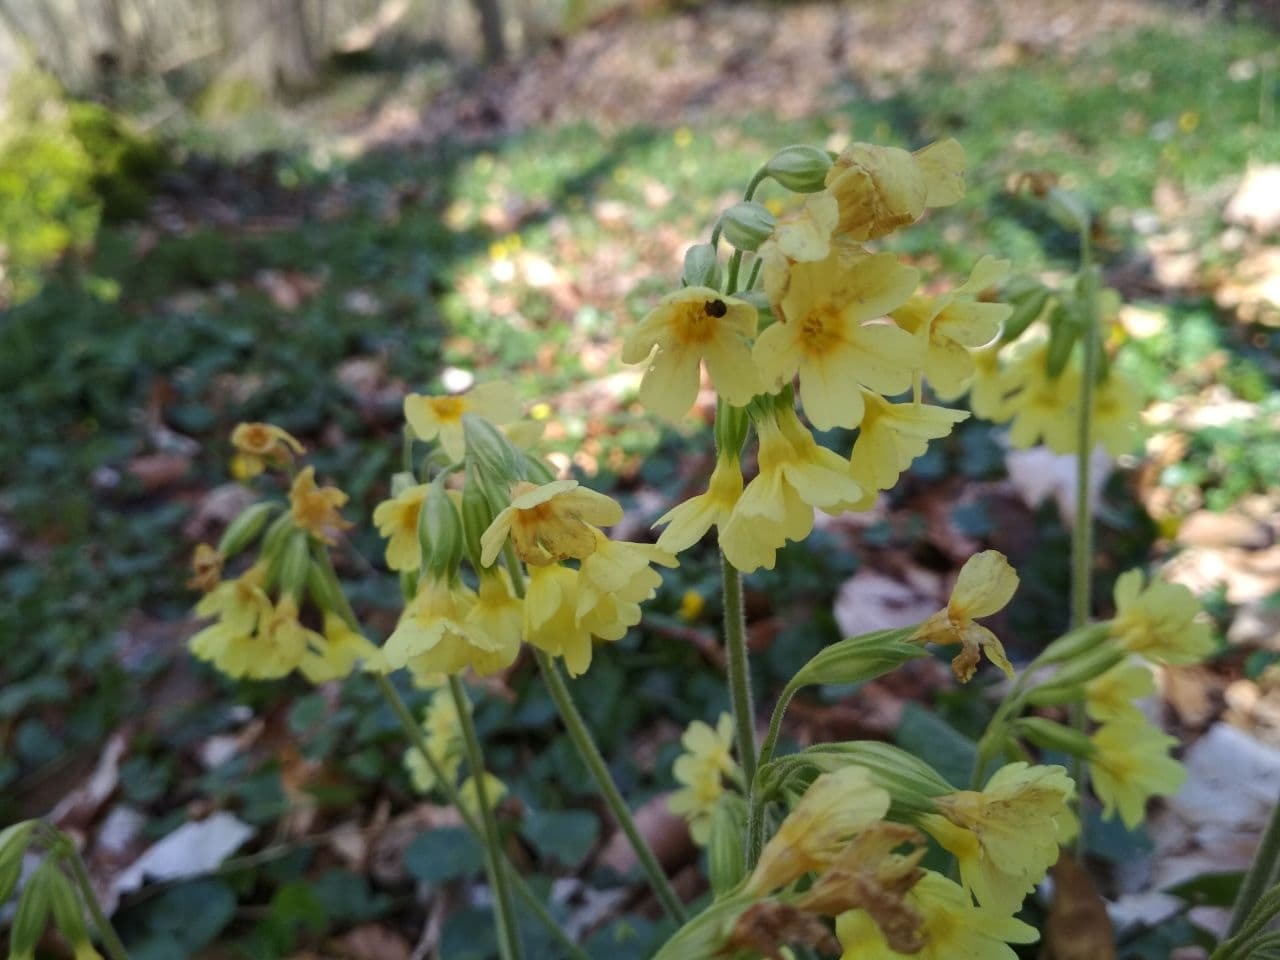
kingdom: Plantae
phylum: Tracheophyta
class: Magnoliopsida
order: Ericales
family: Primulaceae
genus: Primula
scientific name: Primula elatior
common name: Oxlip
